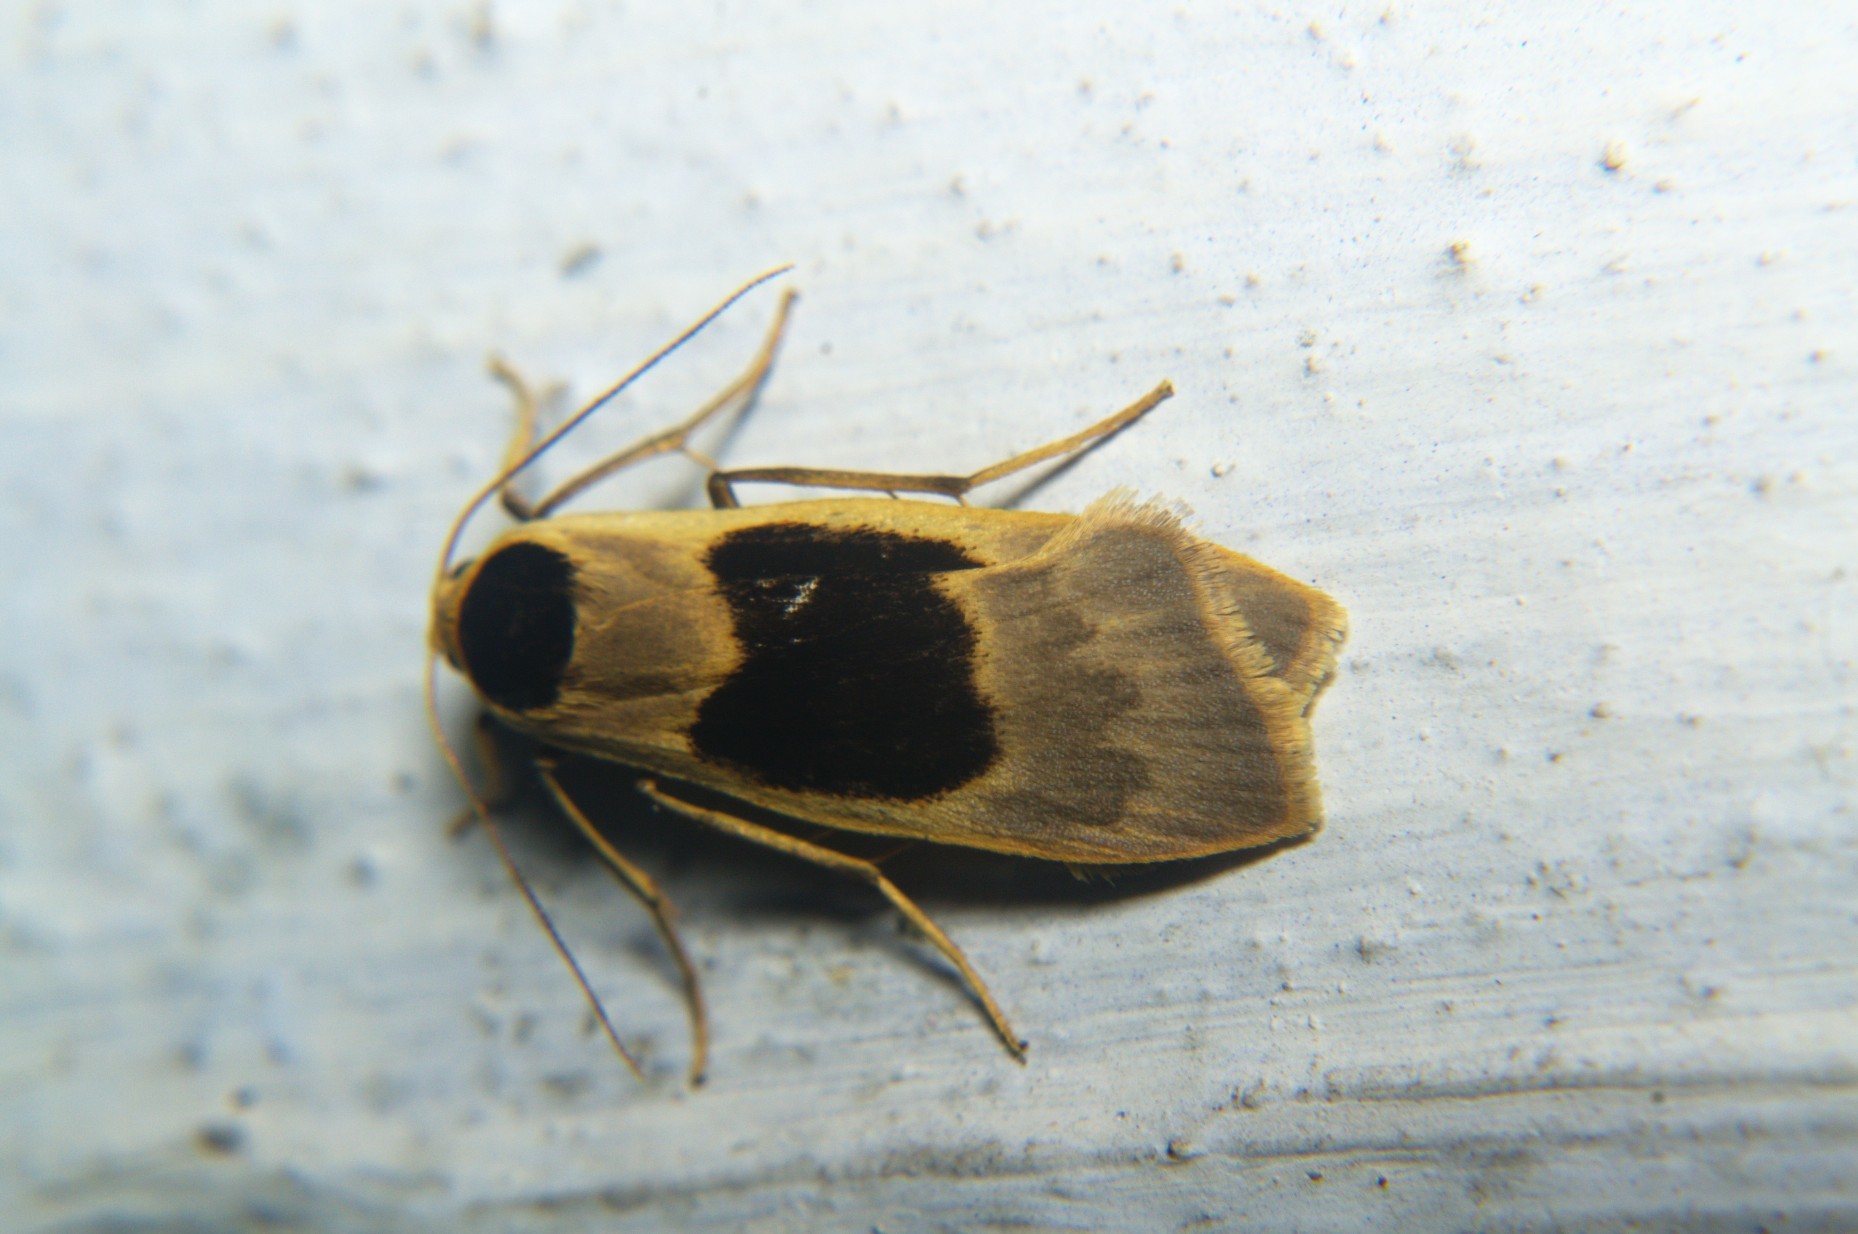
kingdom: Animalia
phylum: Arthropoda
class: Insecta
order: Lepidoptera
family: Erebidae
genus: Teulisna
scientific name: Teulisna karena
